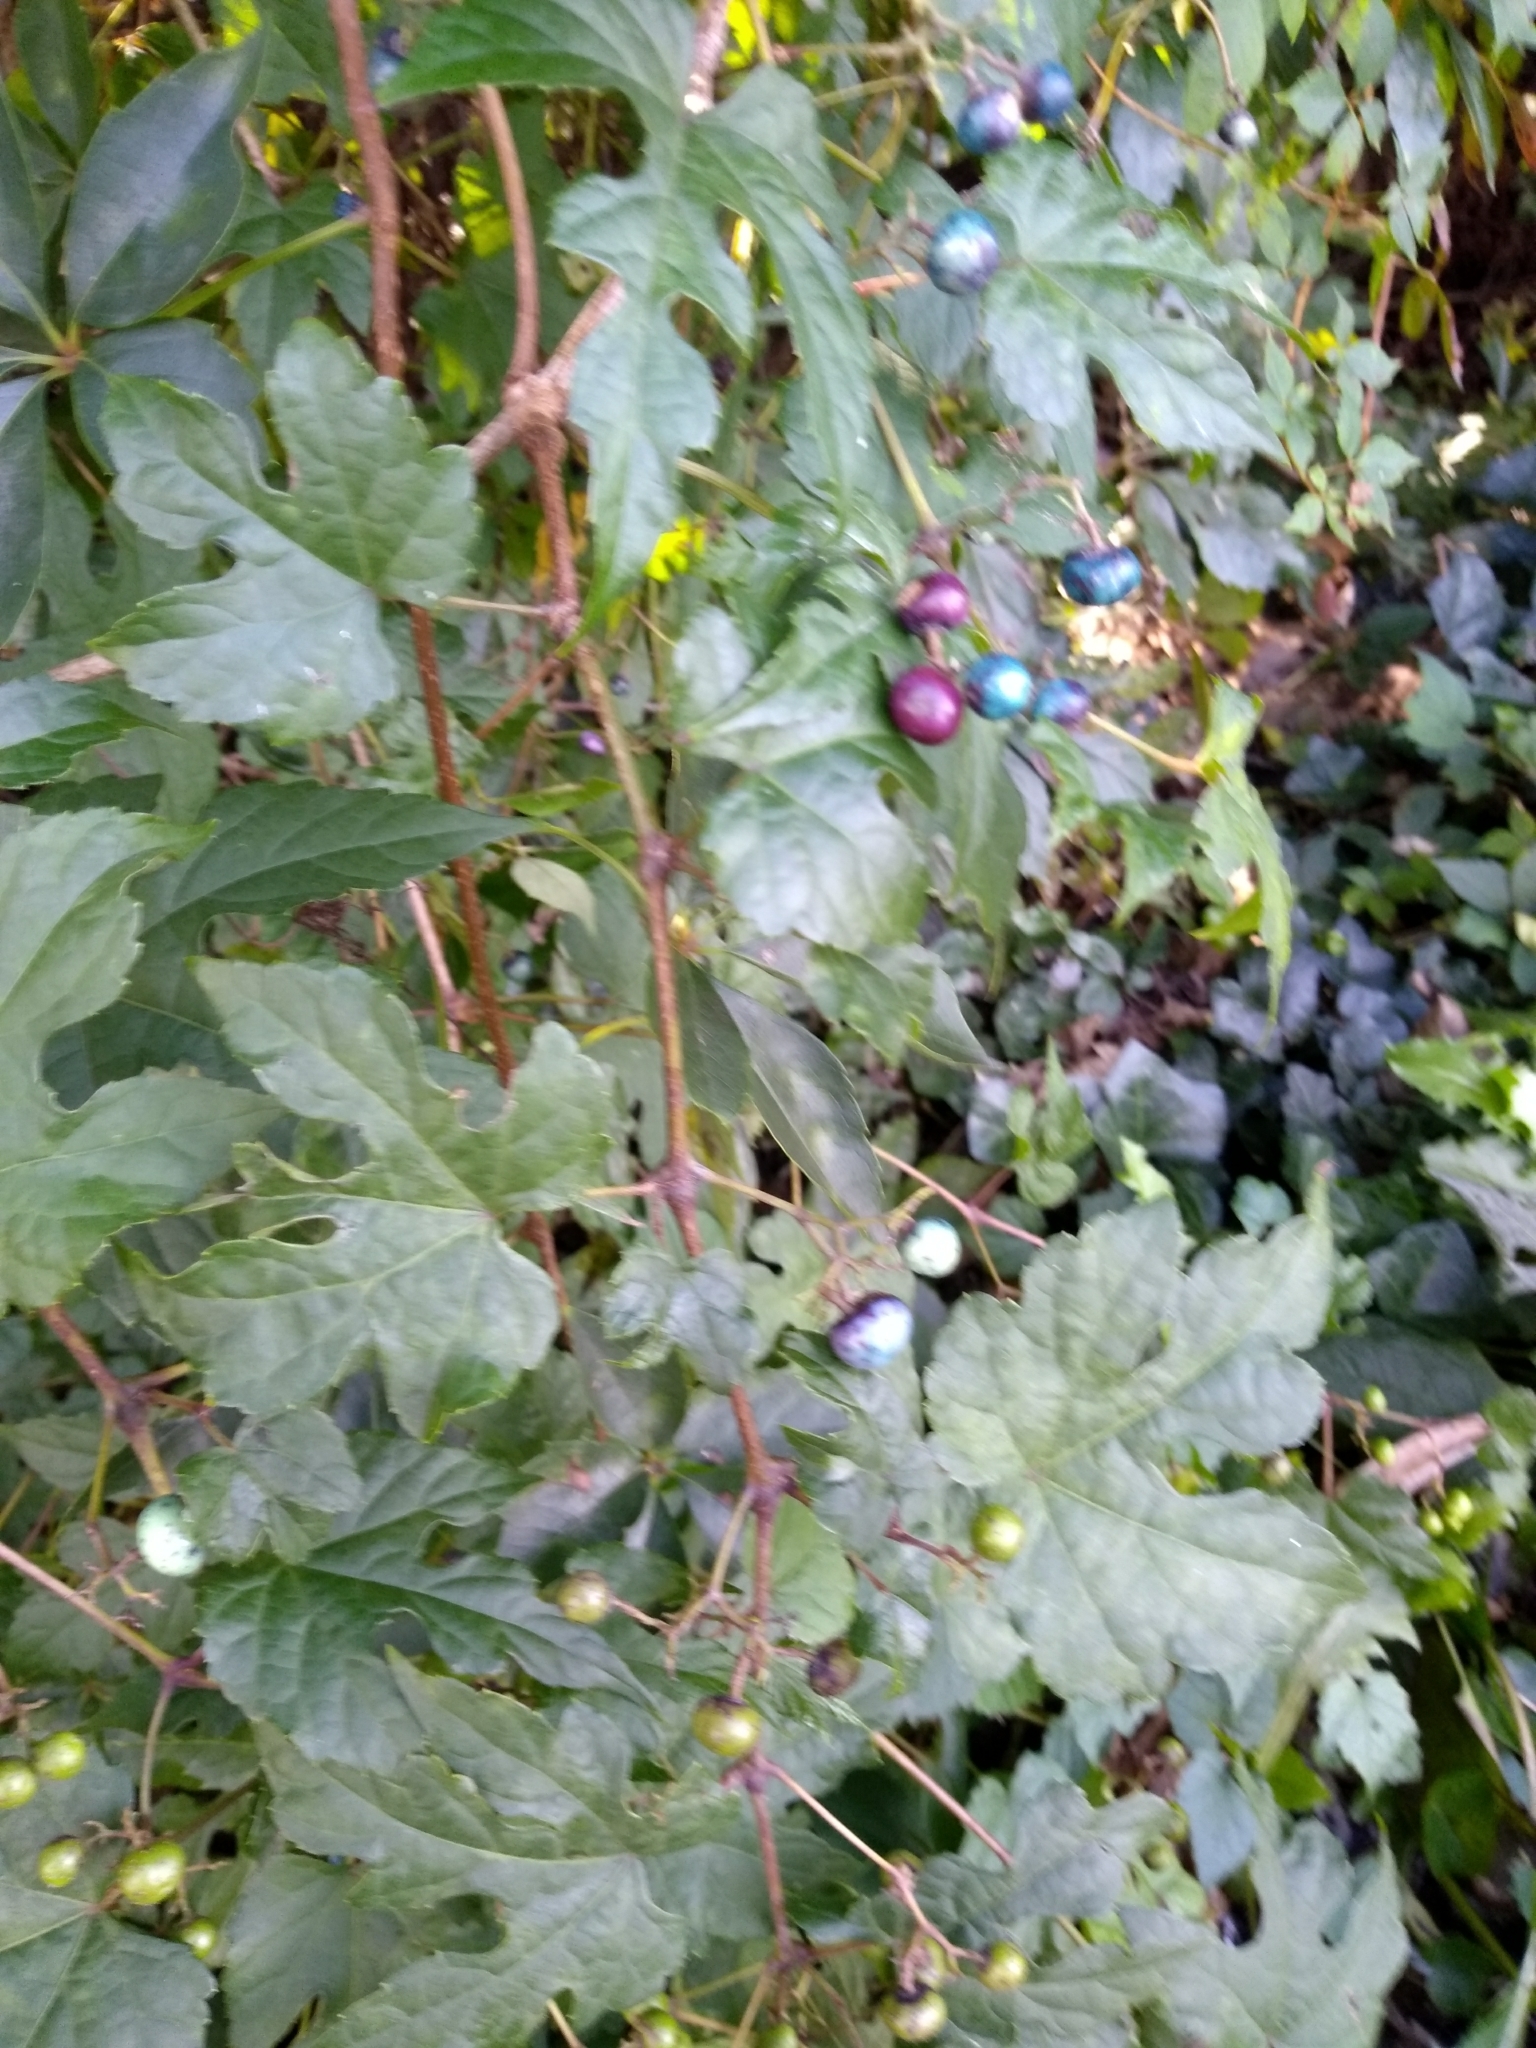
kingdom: Plantae
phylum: Tracheophyta
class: Magnoliopsida
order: Vitales
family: Vitaceae
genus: Ampelopsis
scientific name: Ampelopsis glandulosa
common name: Amur peppervine
